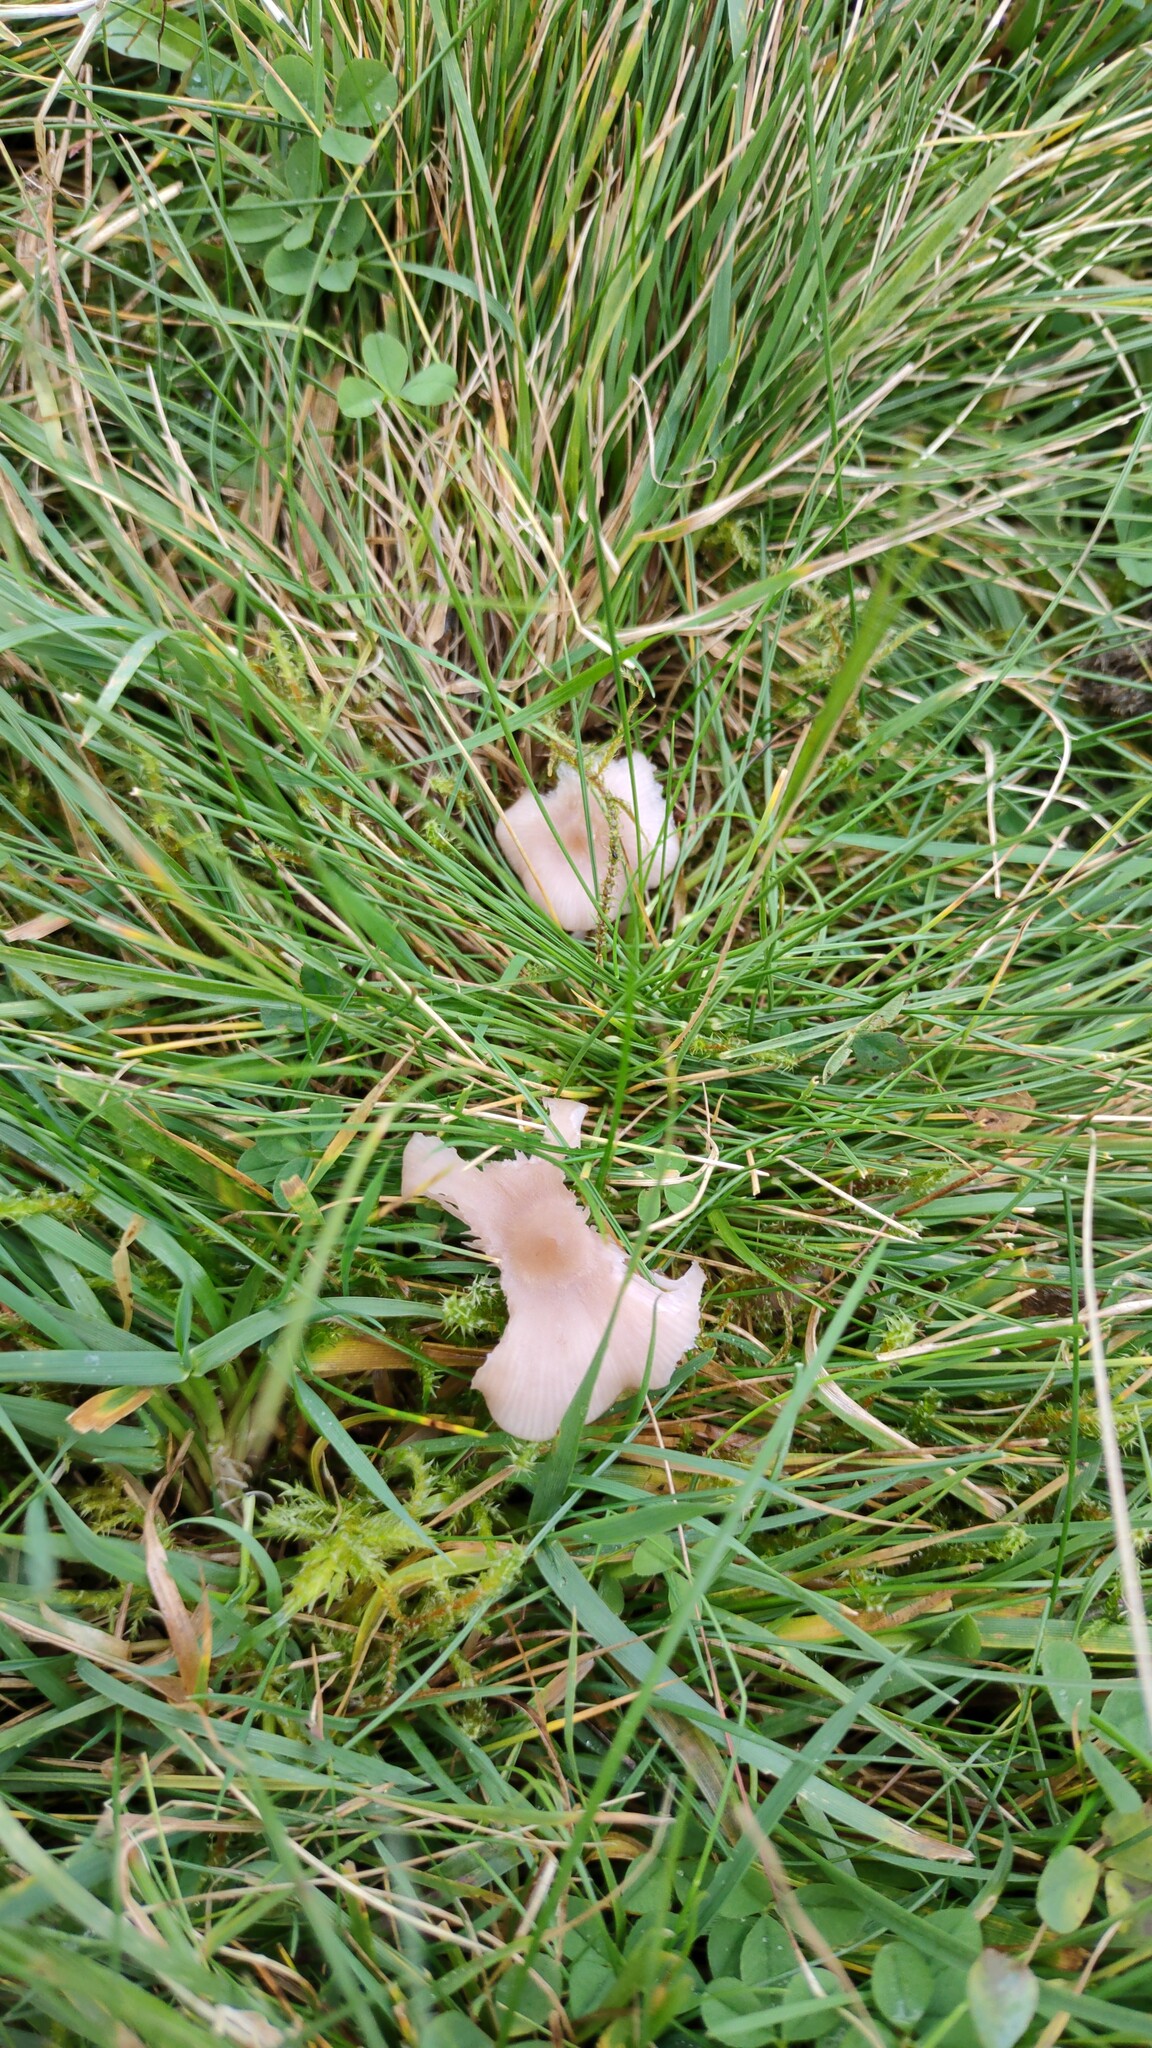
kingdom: Fungi
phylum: Basidiomycota
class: Agaricomycetes
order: Agaricales
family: Tricholomataceae
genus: Collybia
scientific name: Collybia
